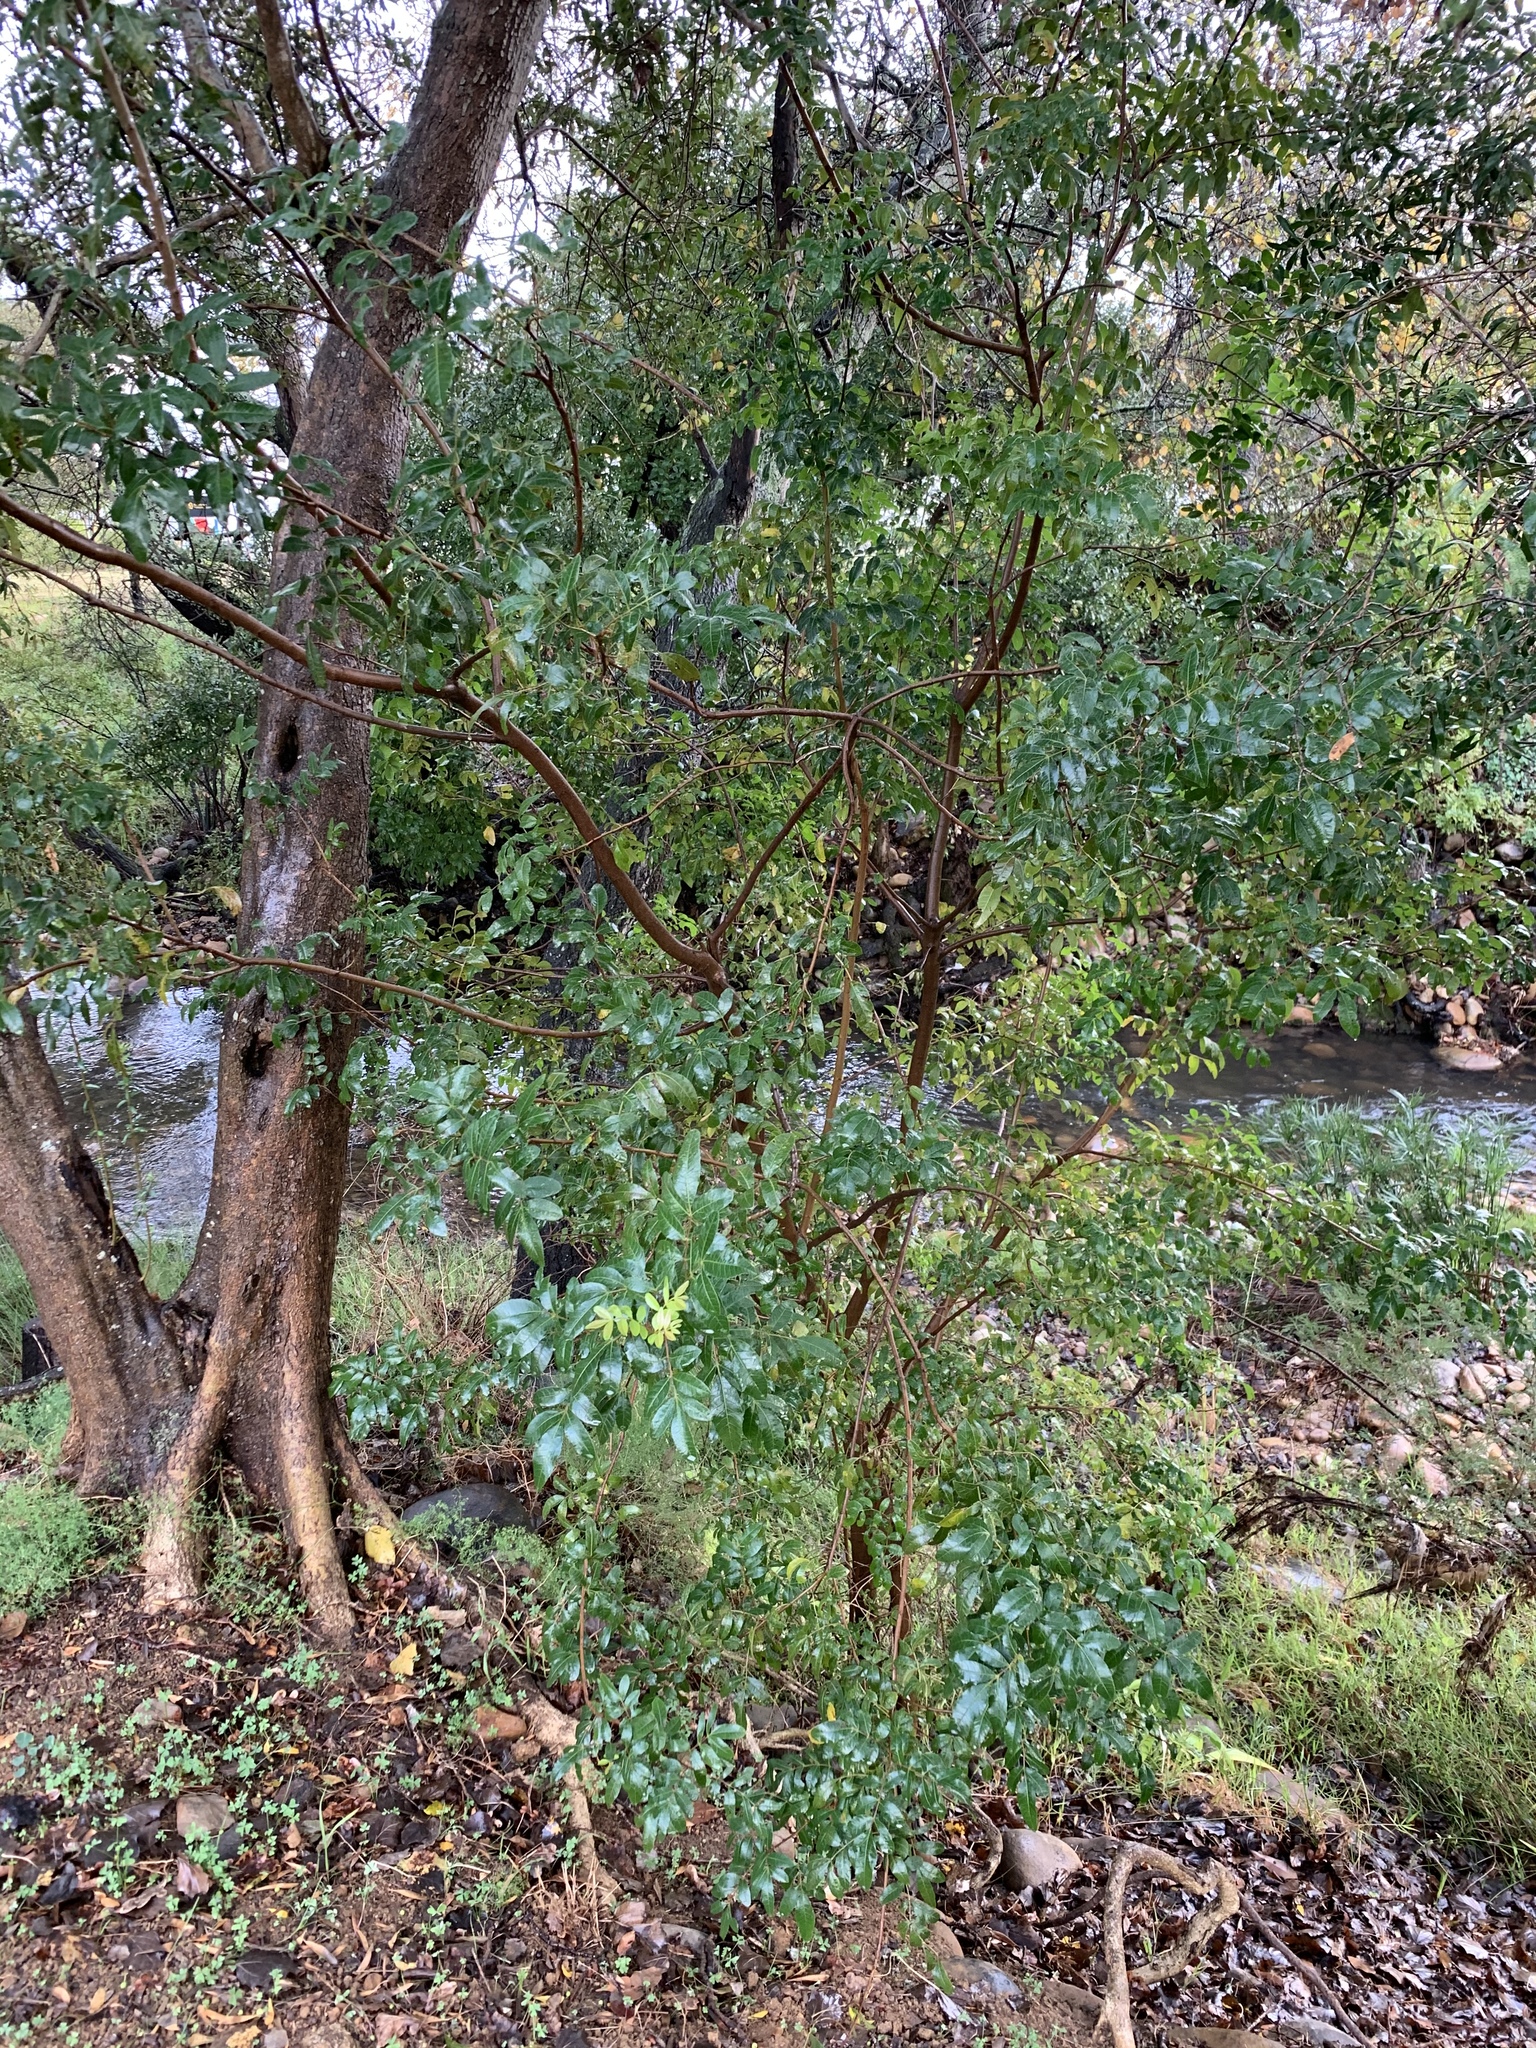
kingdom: Plantae
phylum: Tracheophyta
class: Magnoliopsida
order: Sapindales
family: Anacardiaceae
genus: Schinus
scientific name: Schinus terebinthifolia
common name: Brazilian peppertree
